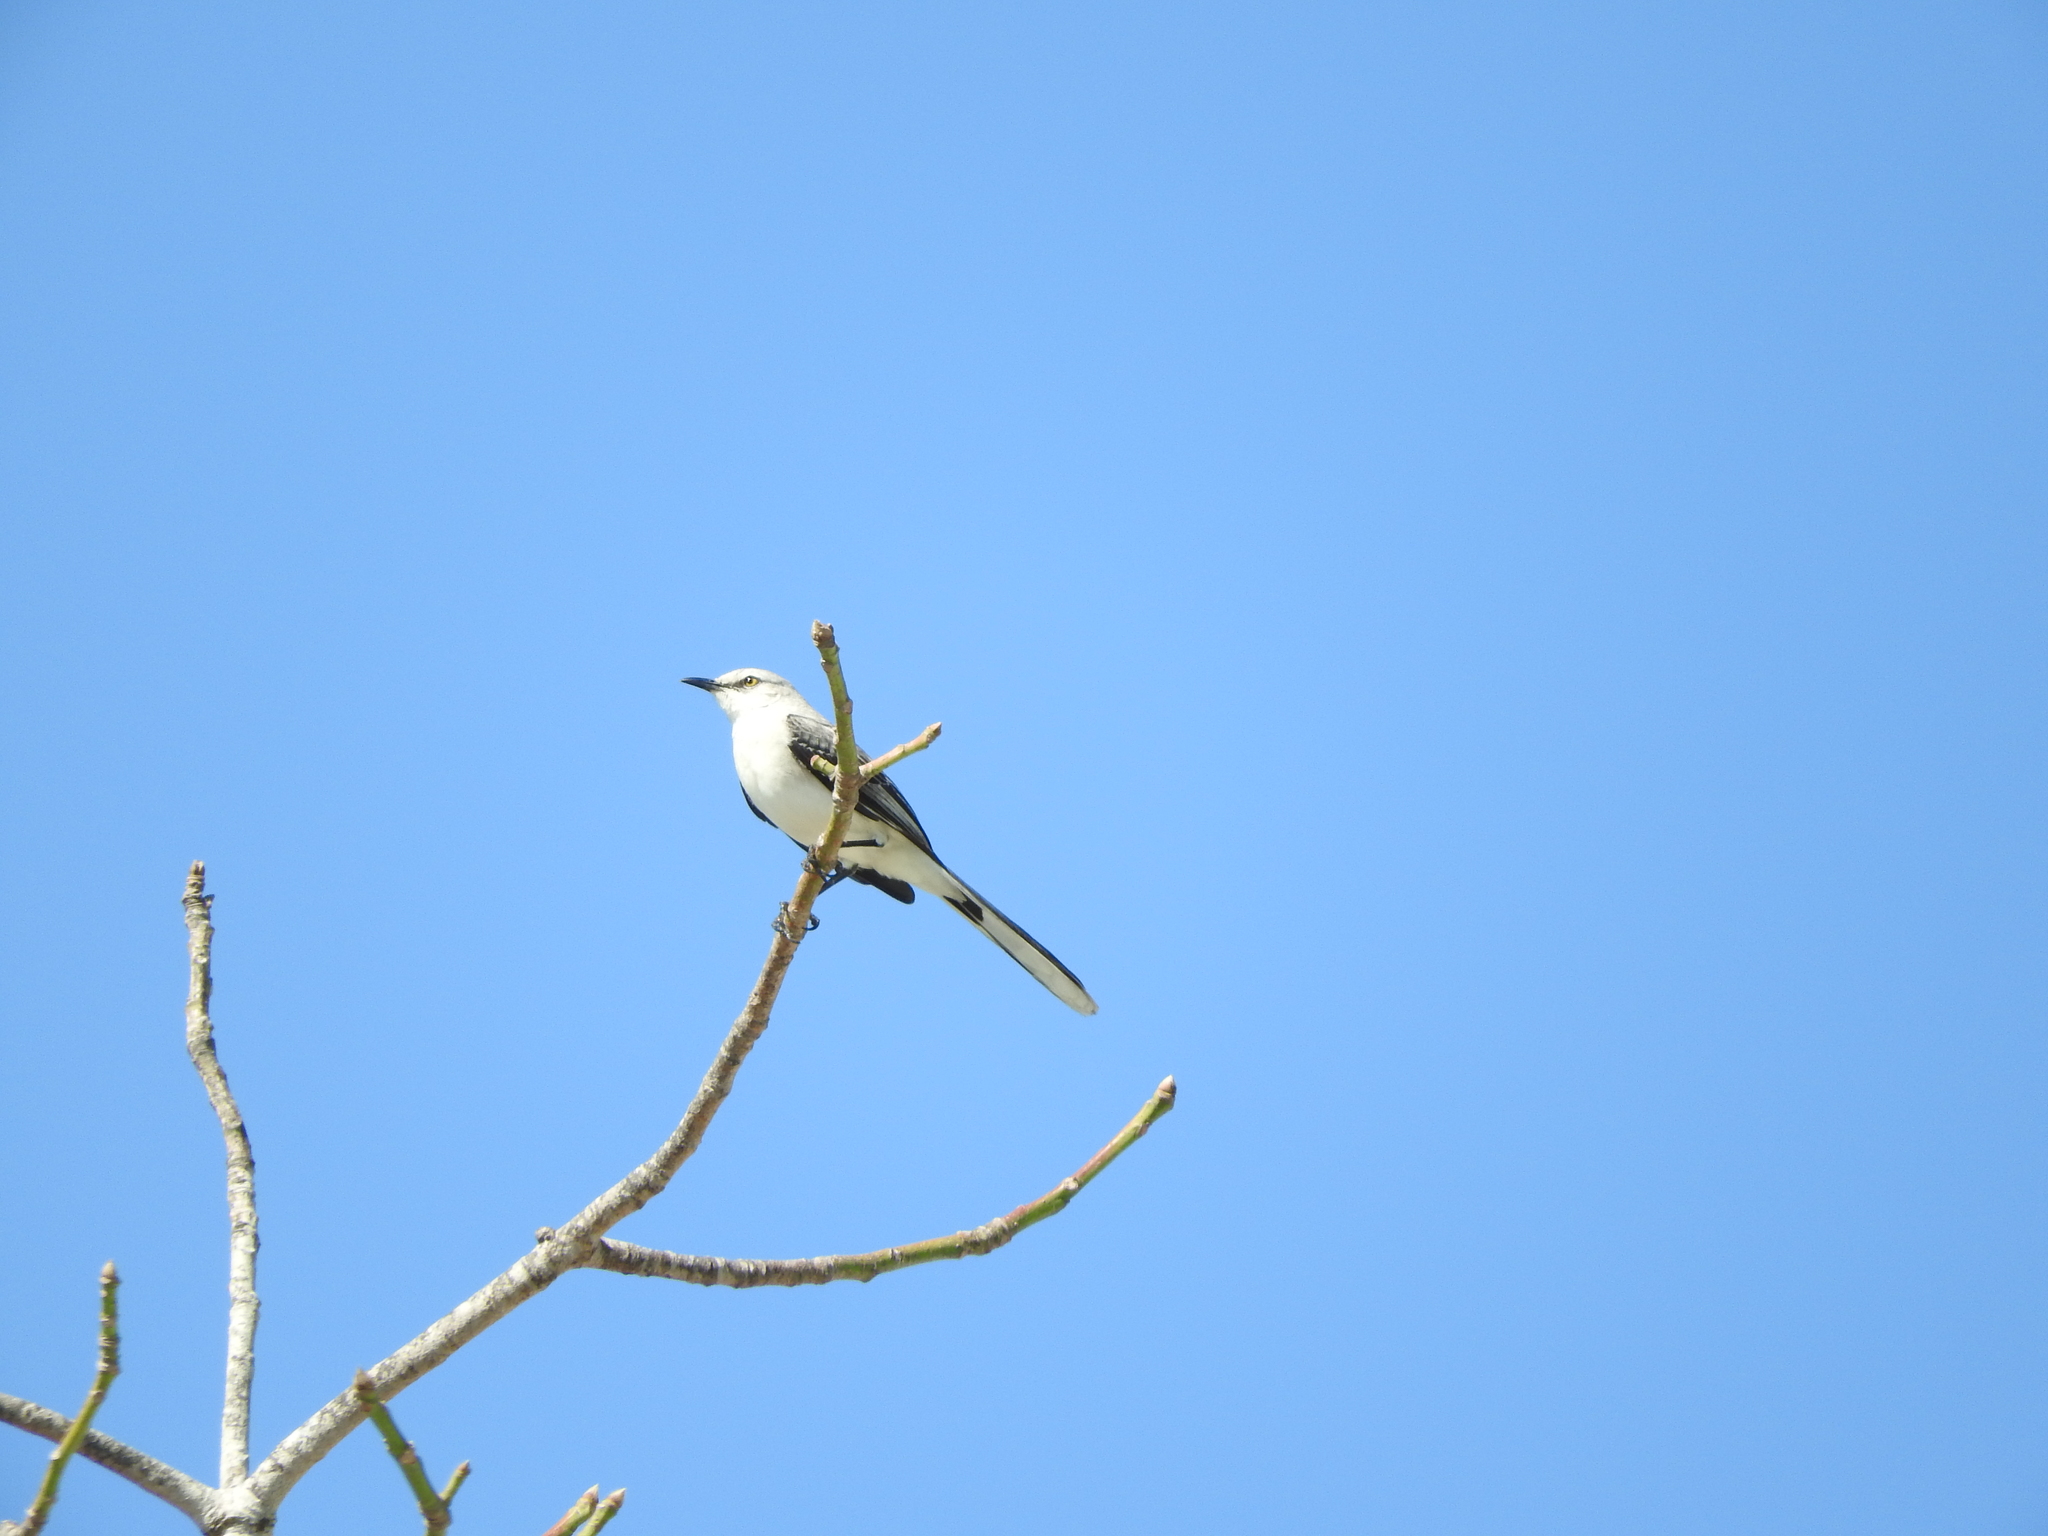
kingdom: Animalia
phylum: Chordata
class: Aves
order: Passeriformes
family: Mimidae
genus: Mimus
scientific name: Mimus gilvus
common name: Tropical mockingbird
